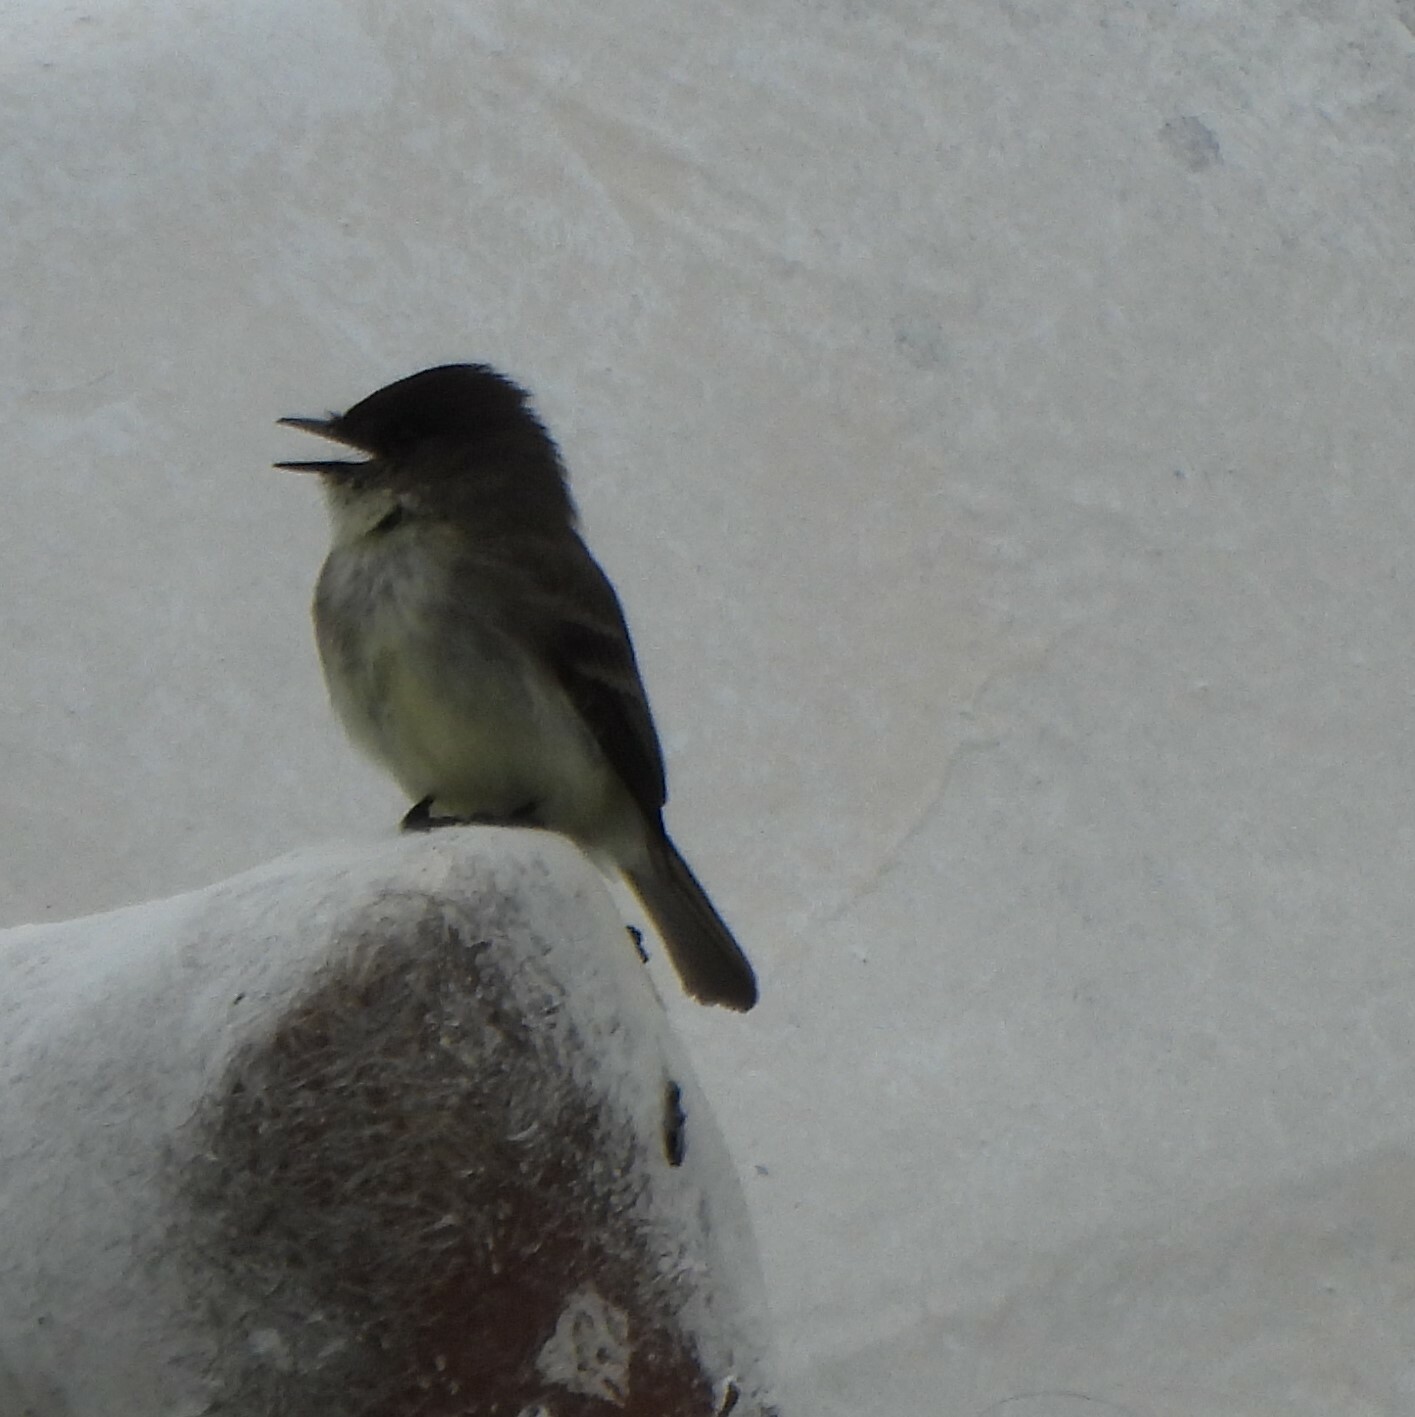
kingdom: Animalia
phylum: Chordata
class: Aves
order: Passeriformes
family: Tyrannidae
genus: Sayornis
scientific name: Sayornis phoebe
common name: Eastern phoebe
